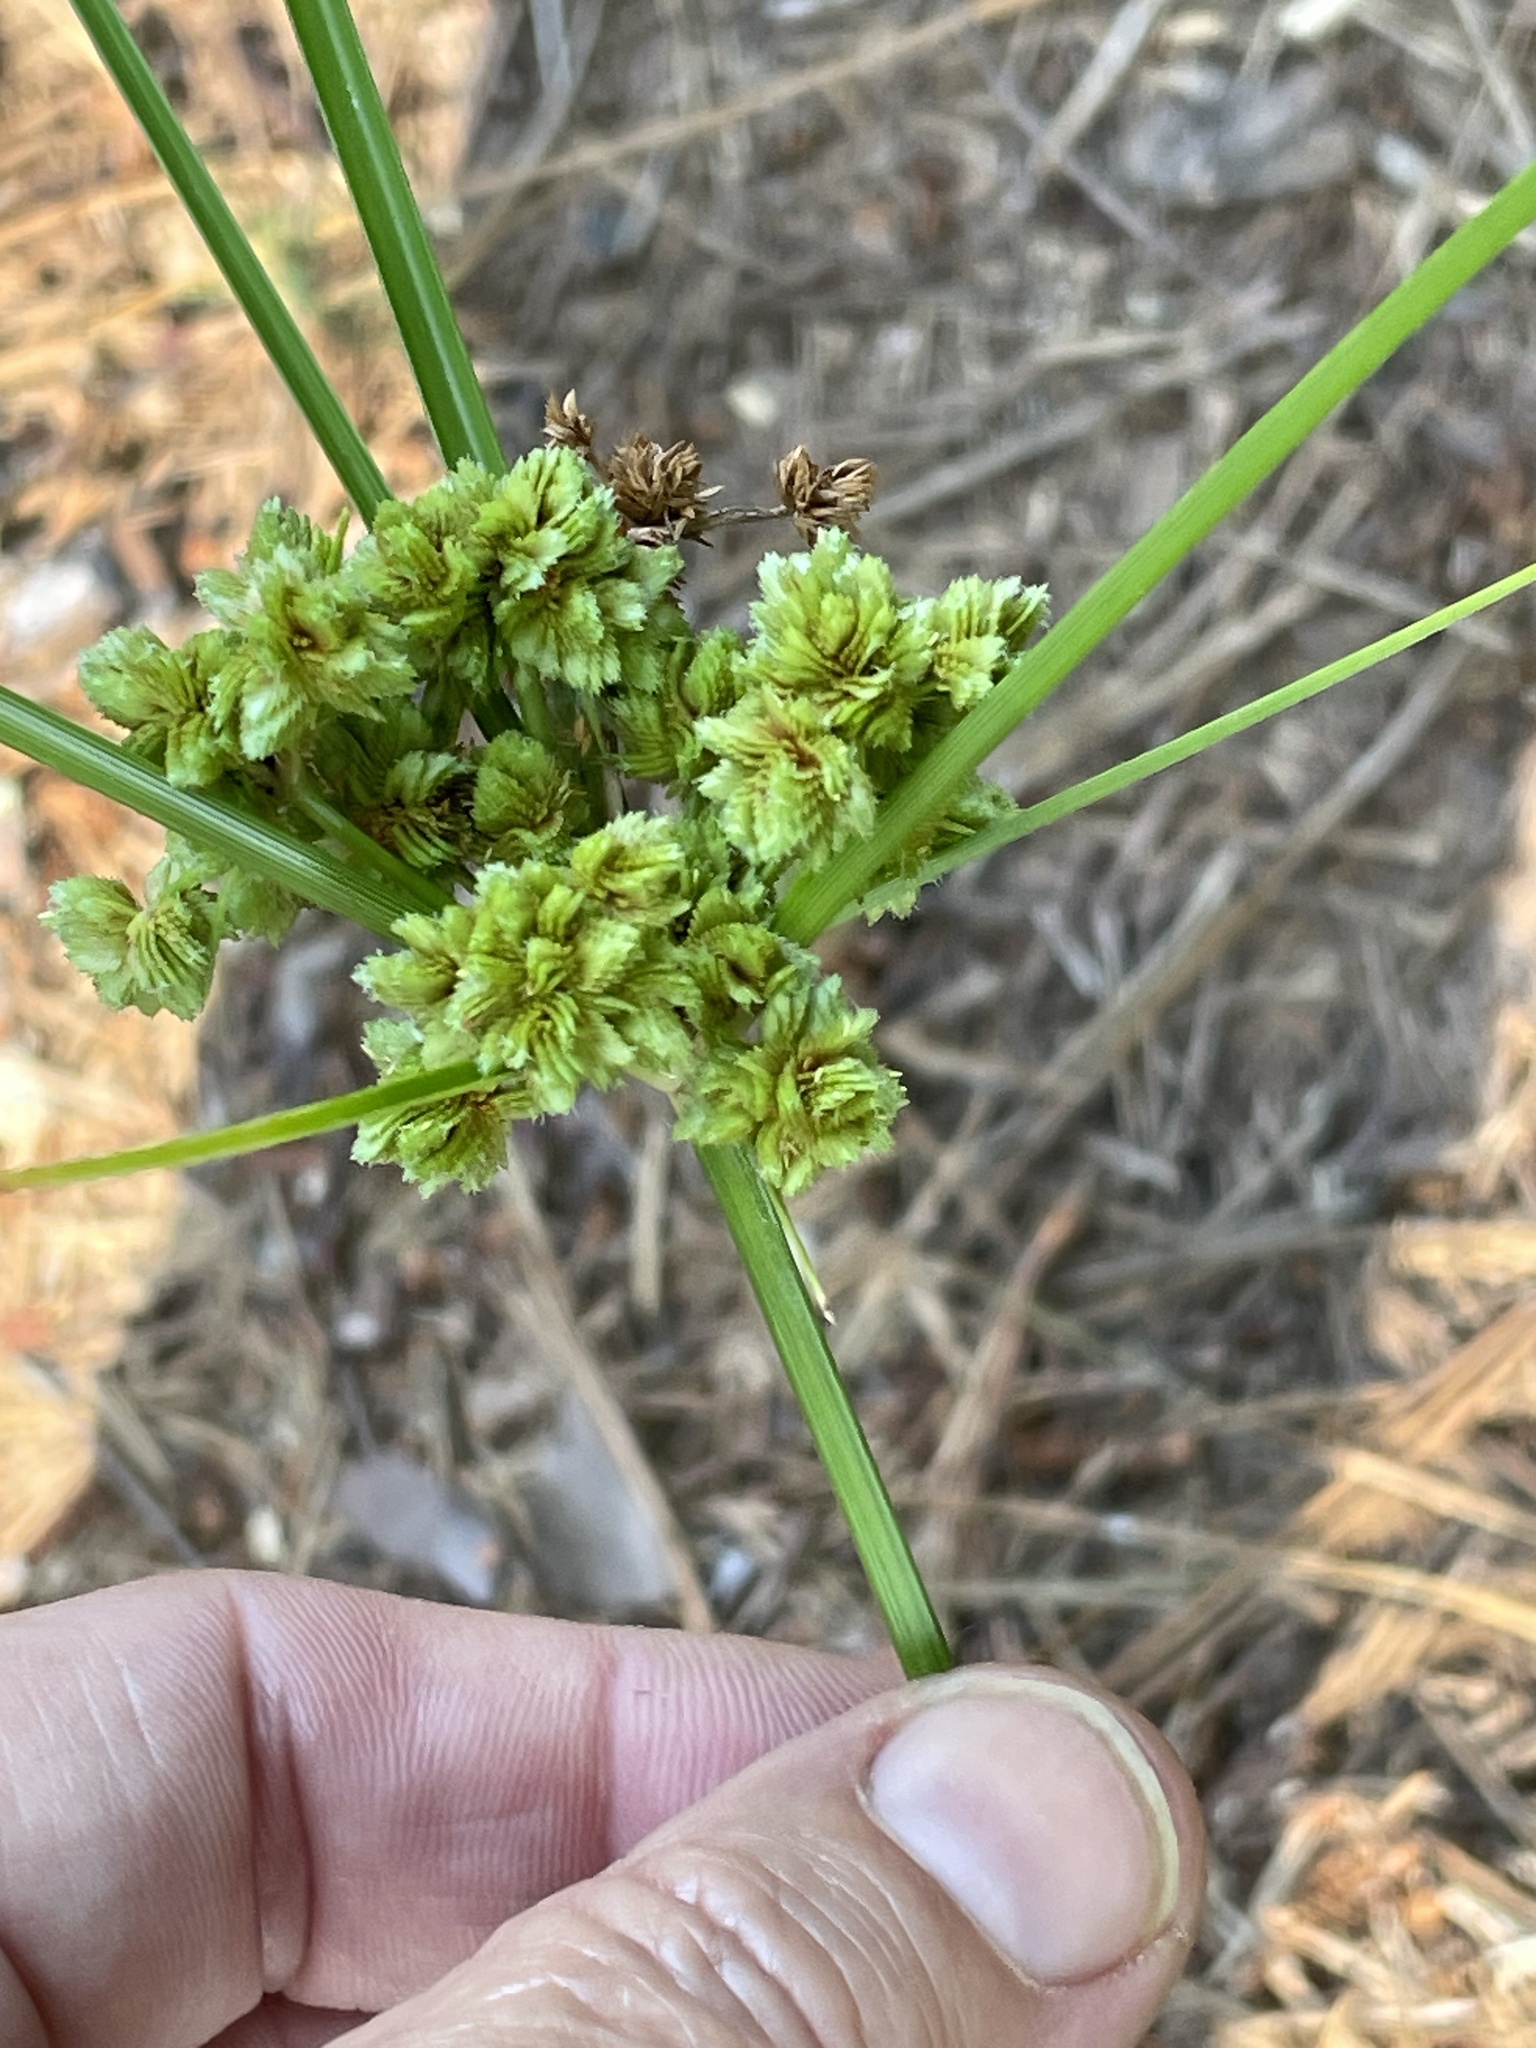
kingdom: Plantae
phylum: Tracheophyta
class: Liliopsida
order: Poales
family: Cyperaceae
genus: Cyperus
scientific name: Cyperus pseudovegetus
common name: Marsh flat sedge
